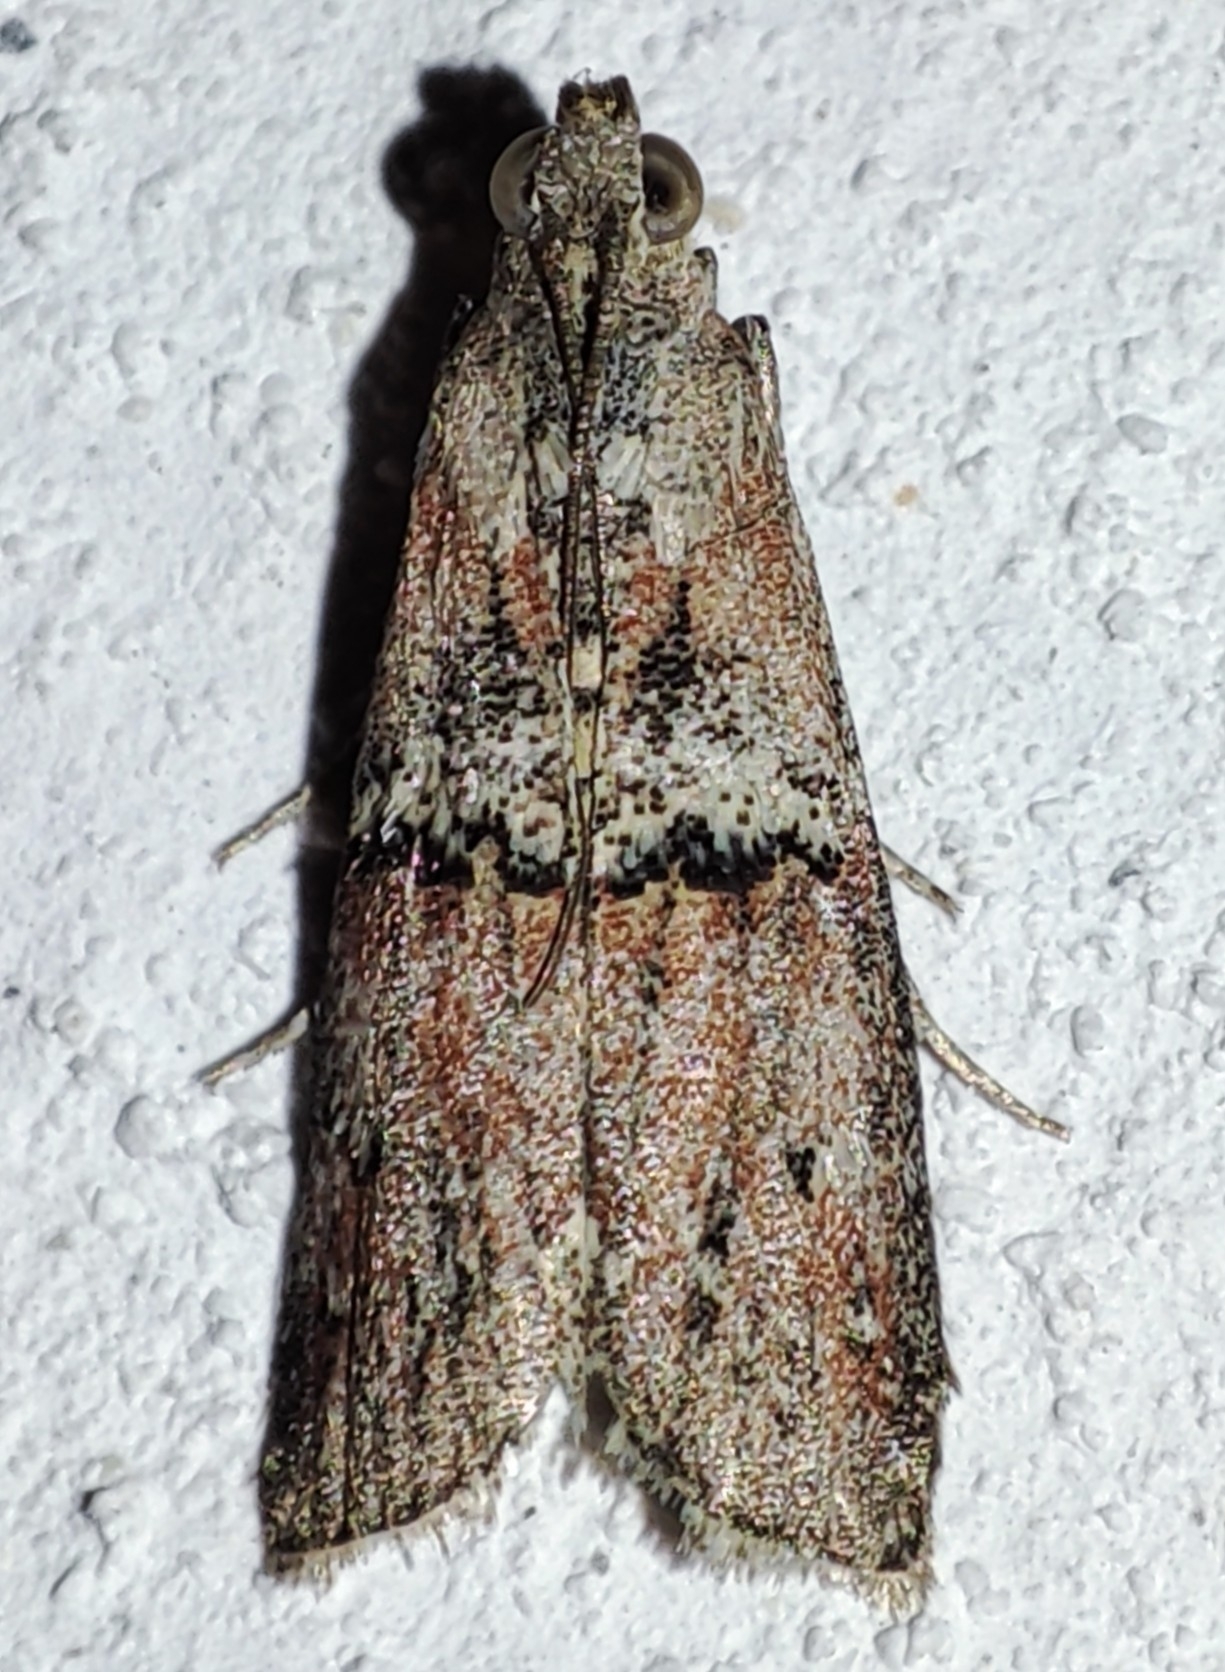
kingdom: Animalia
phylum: Arthropoda
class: Insecta
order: Lepidoptera
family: Pyralidae
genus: Merulempista
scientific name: Merulempista cingillella
